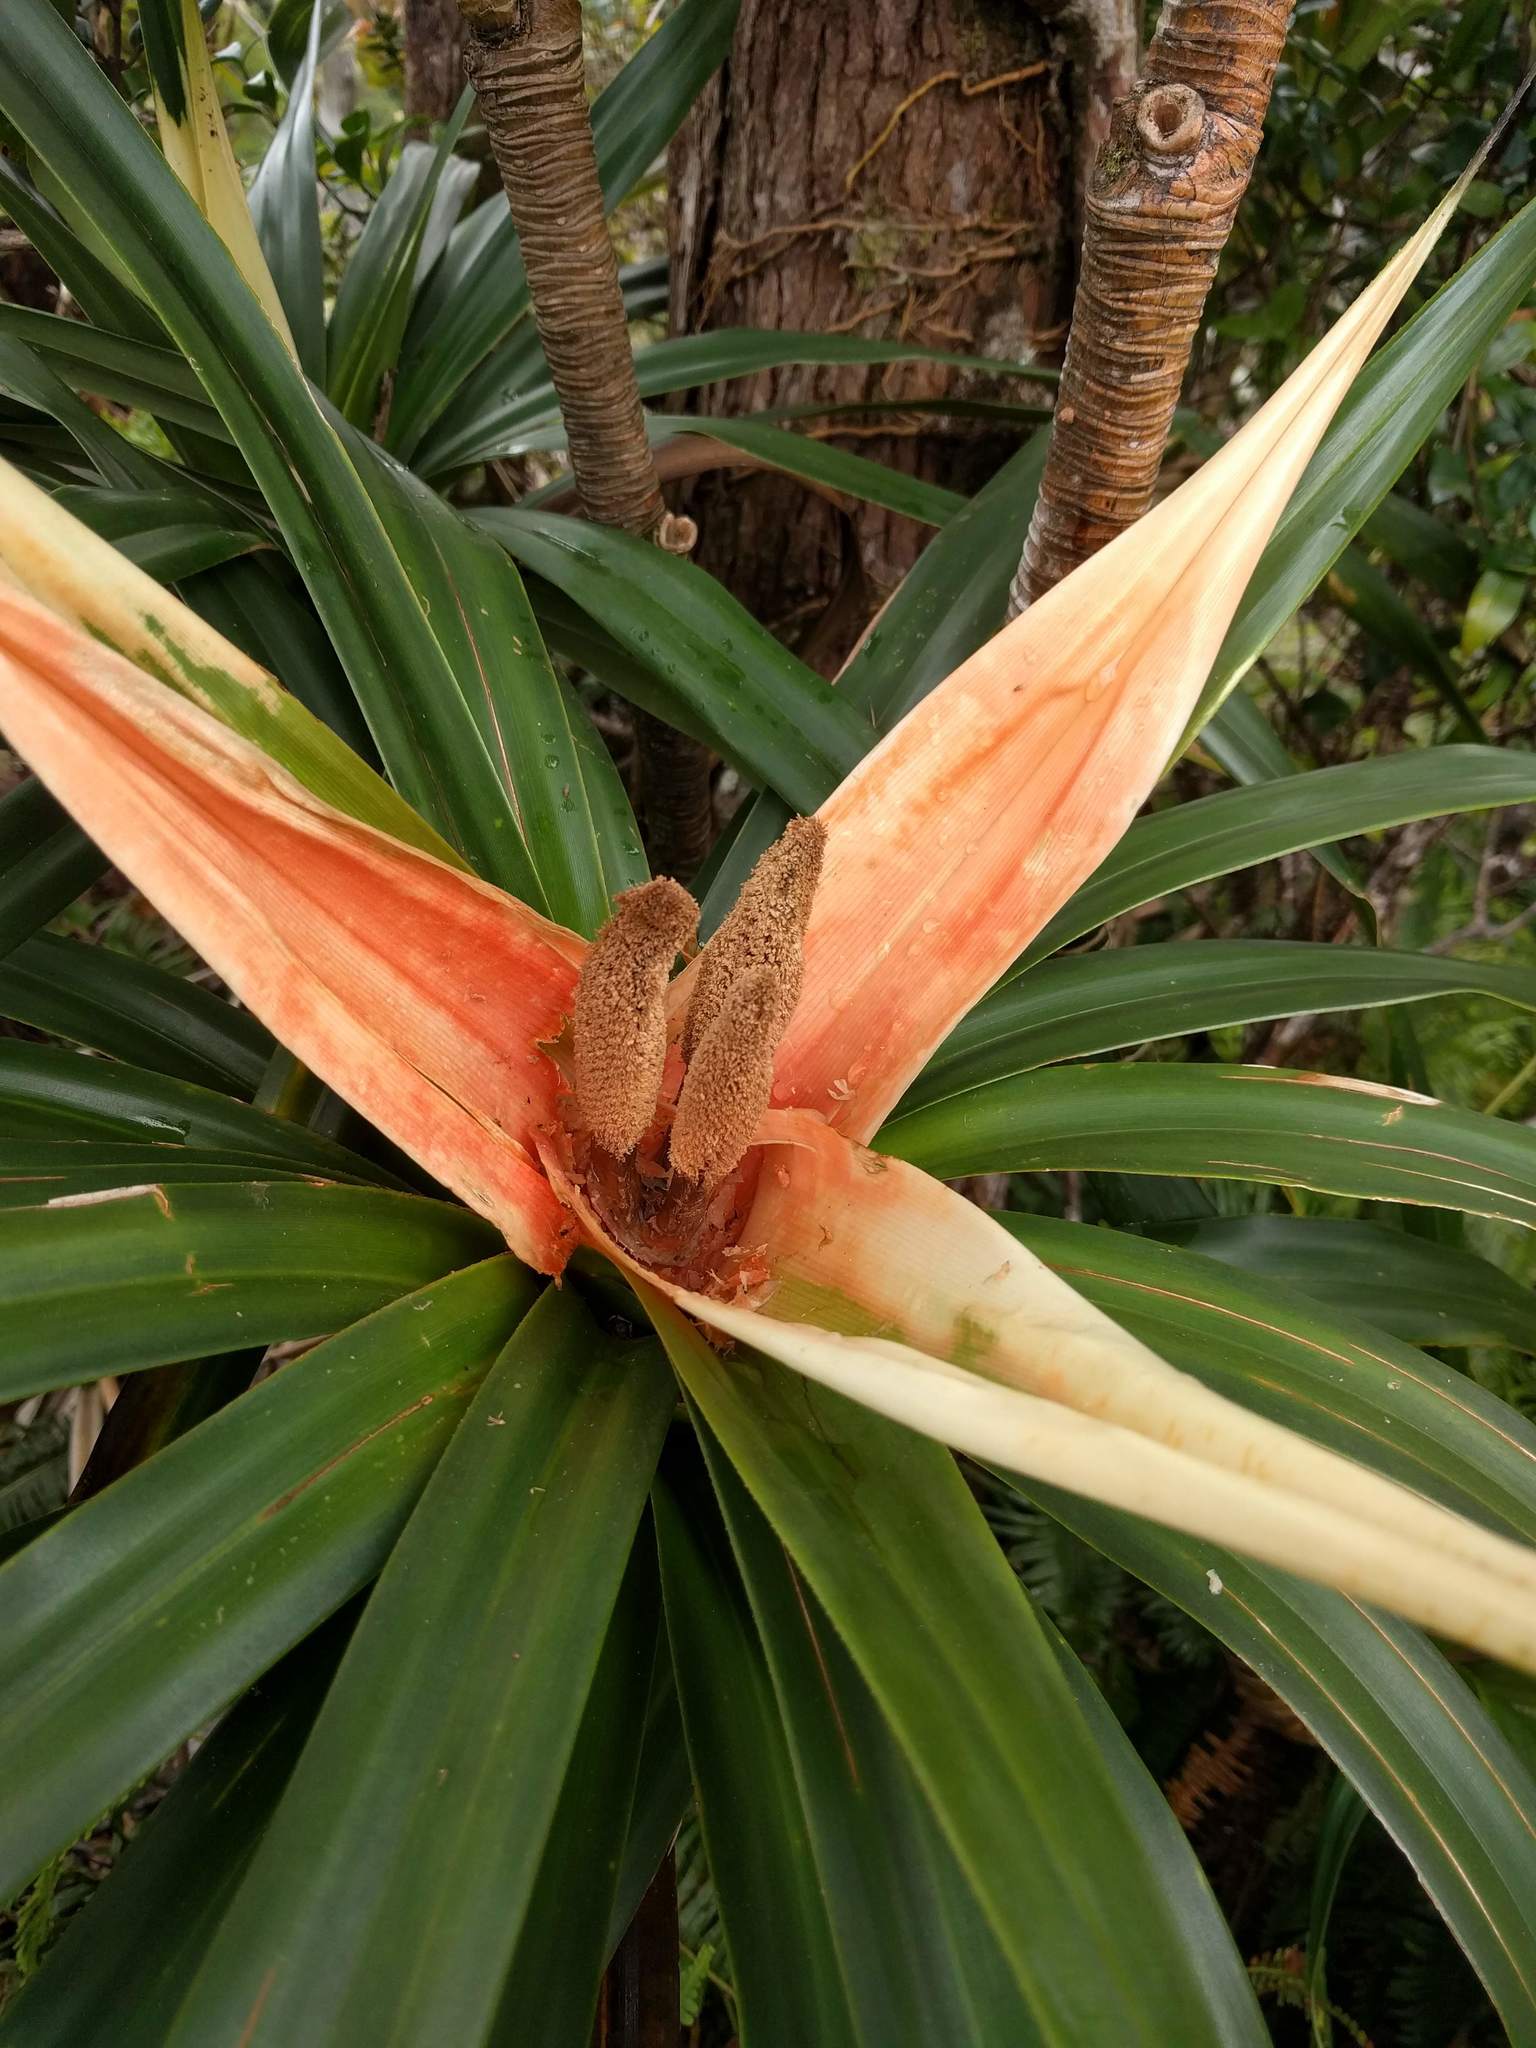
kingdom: Plantae
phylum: Tracheophyta
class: Liliopsida
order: Pandanales
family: Pandanaceae
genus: Freycinetia
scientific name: Freycinetia arborea
